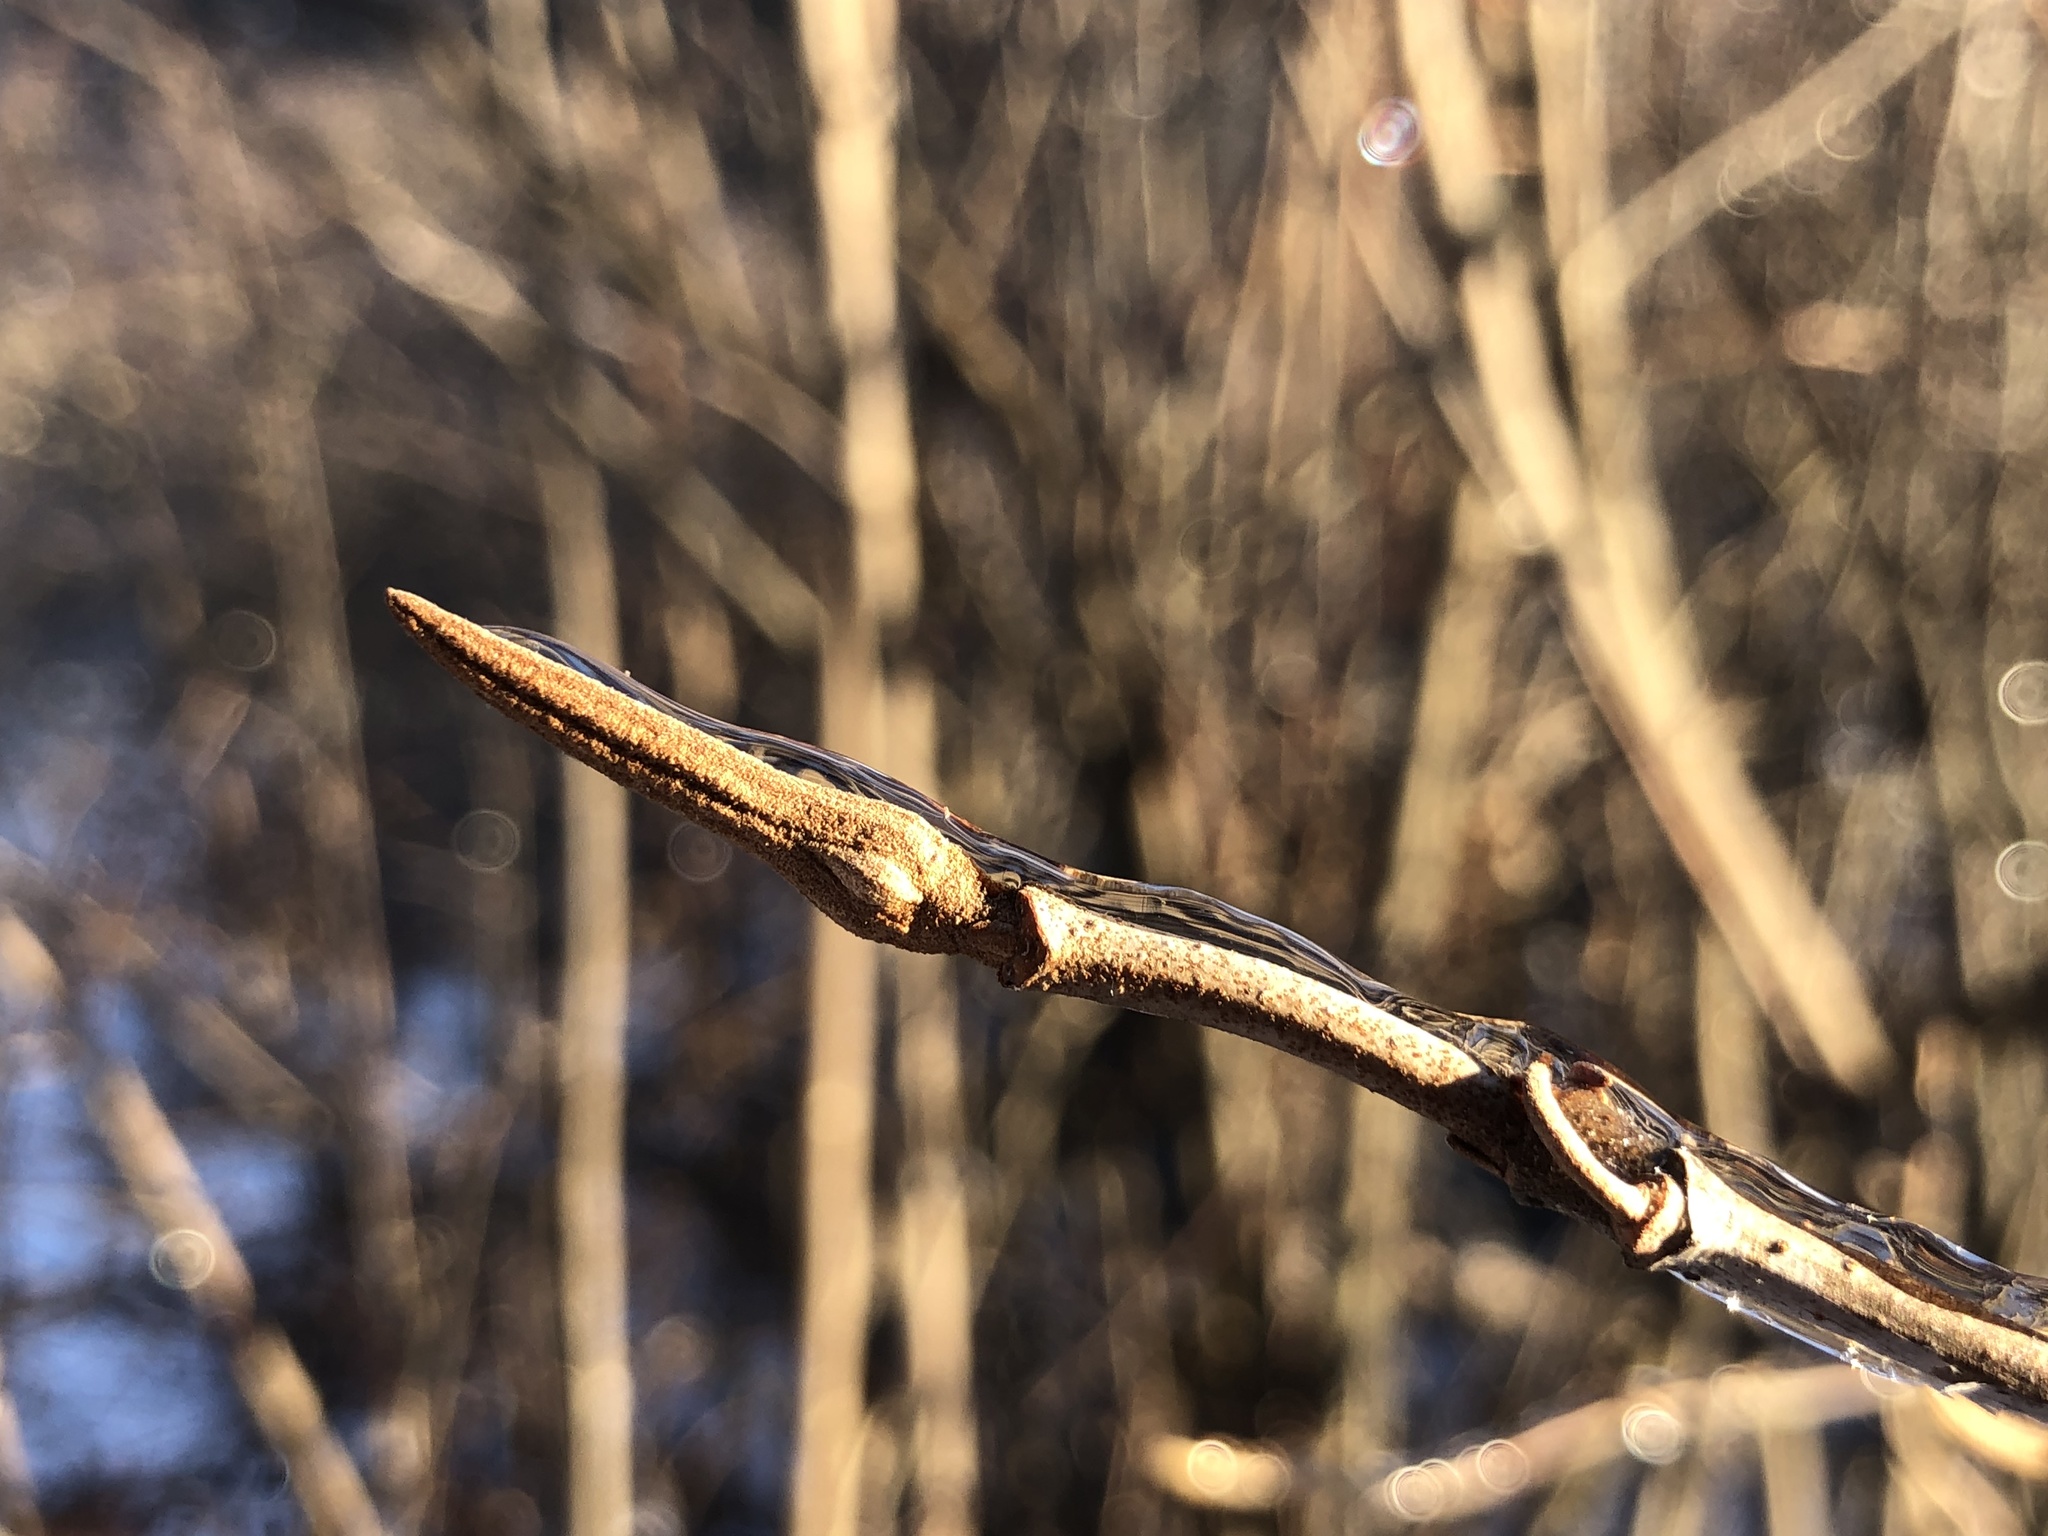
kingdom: Plantae
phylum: Tracheophyta
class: Magnoliopsida
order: Dipsacales
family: Viburnaceae
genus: Viburnum
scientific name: Viburnum cassinoides
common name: Swamp haw
